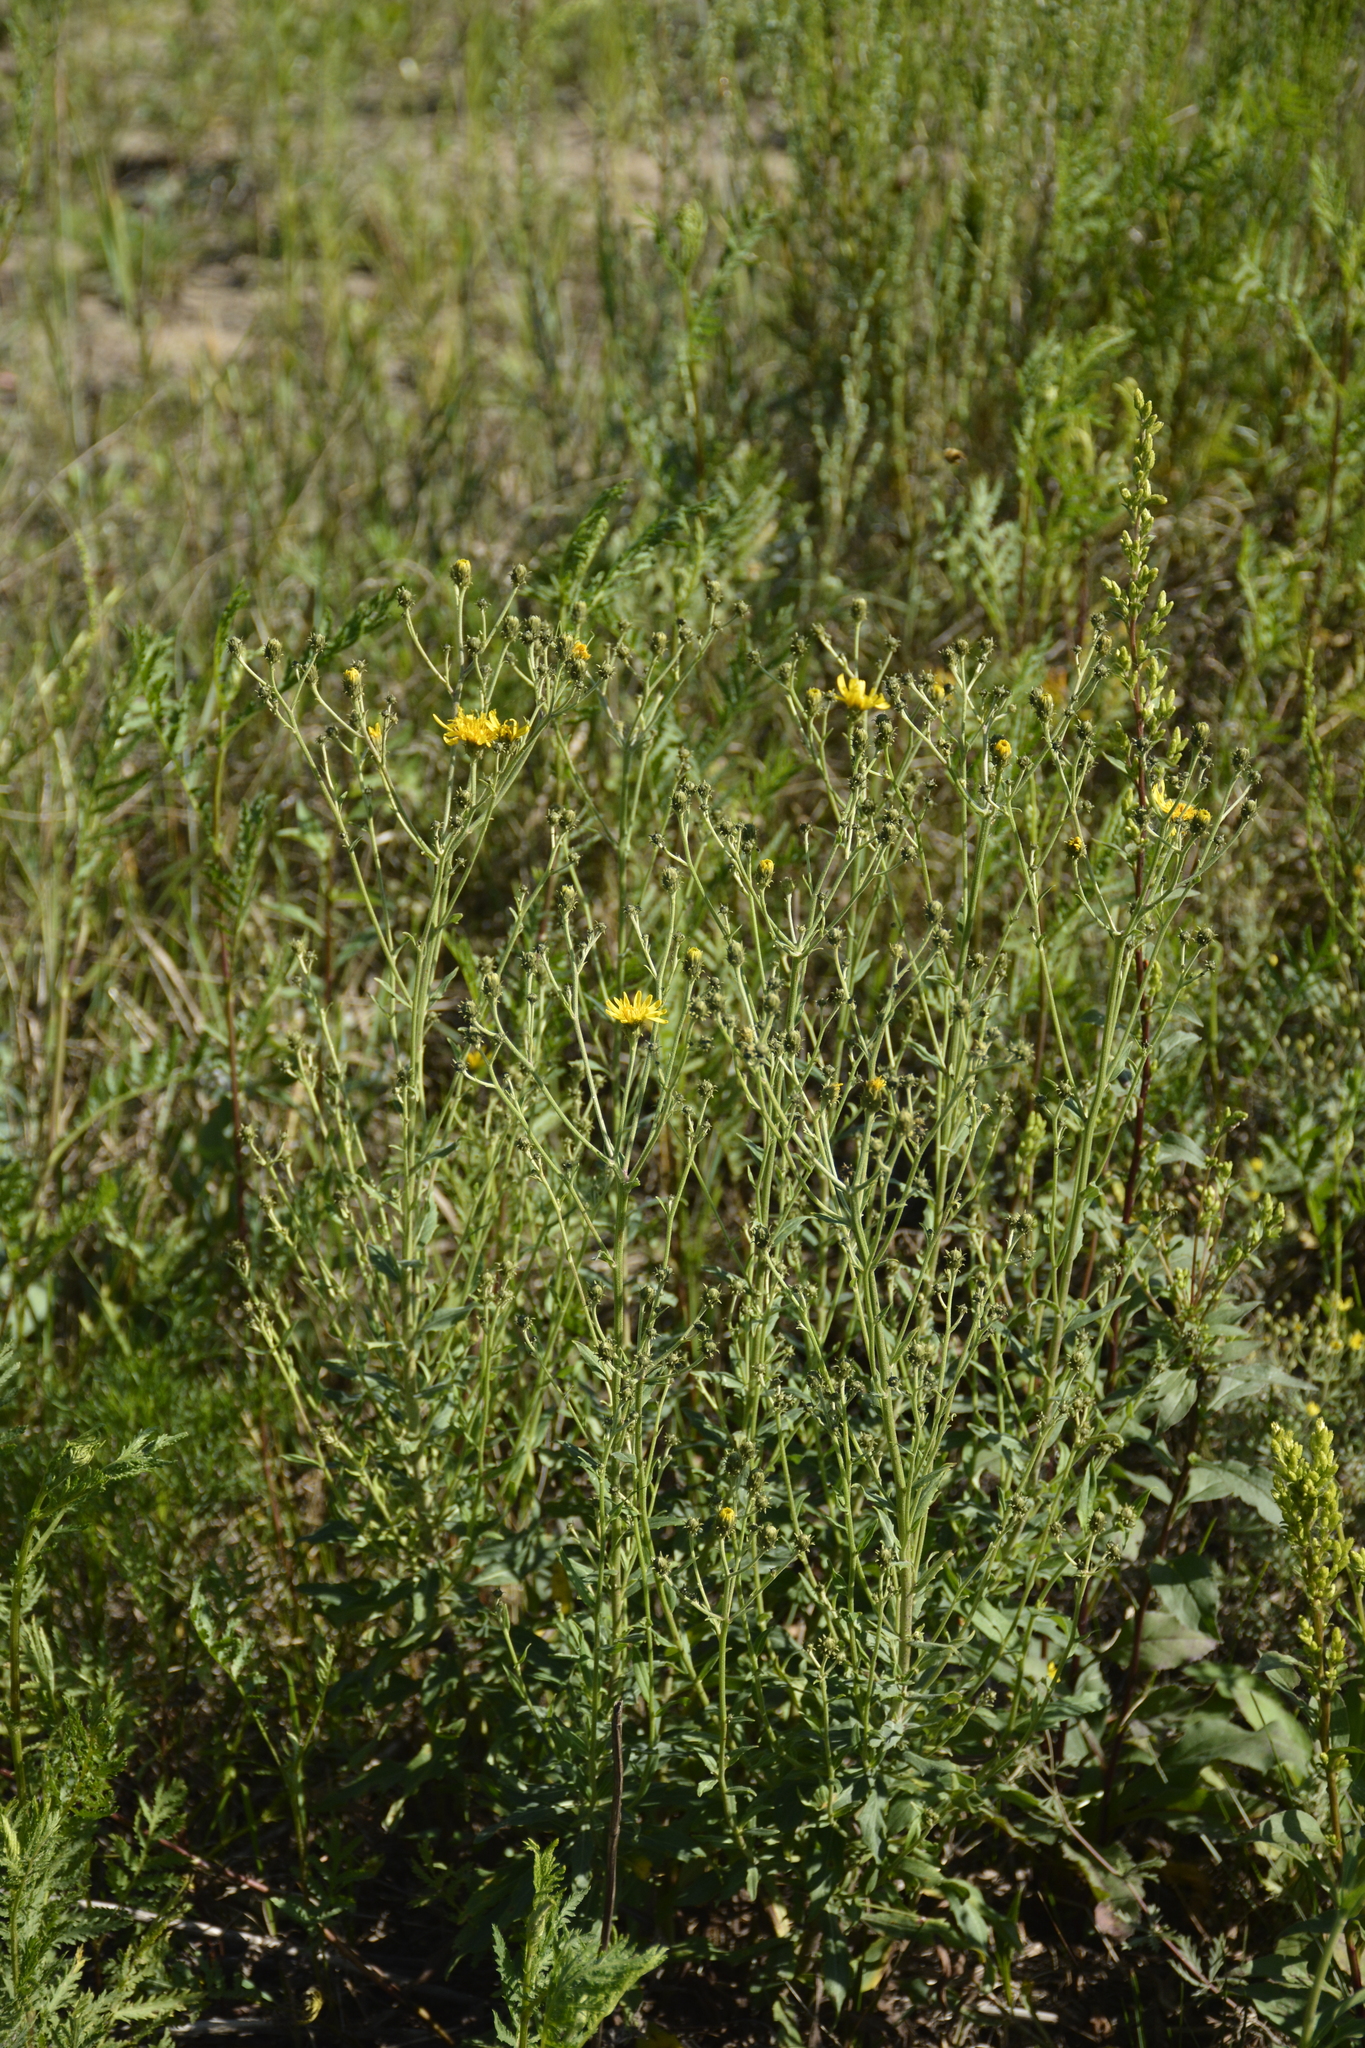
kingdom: Plantae
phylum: Tracheophyta
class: Magnoliopsida
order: Asterales
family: Asteraceae
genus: Hieracium
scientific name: Hieracium umbellatum
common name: Northern hawkweed
